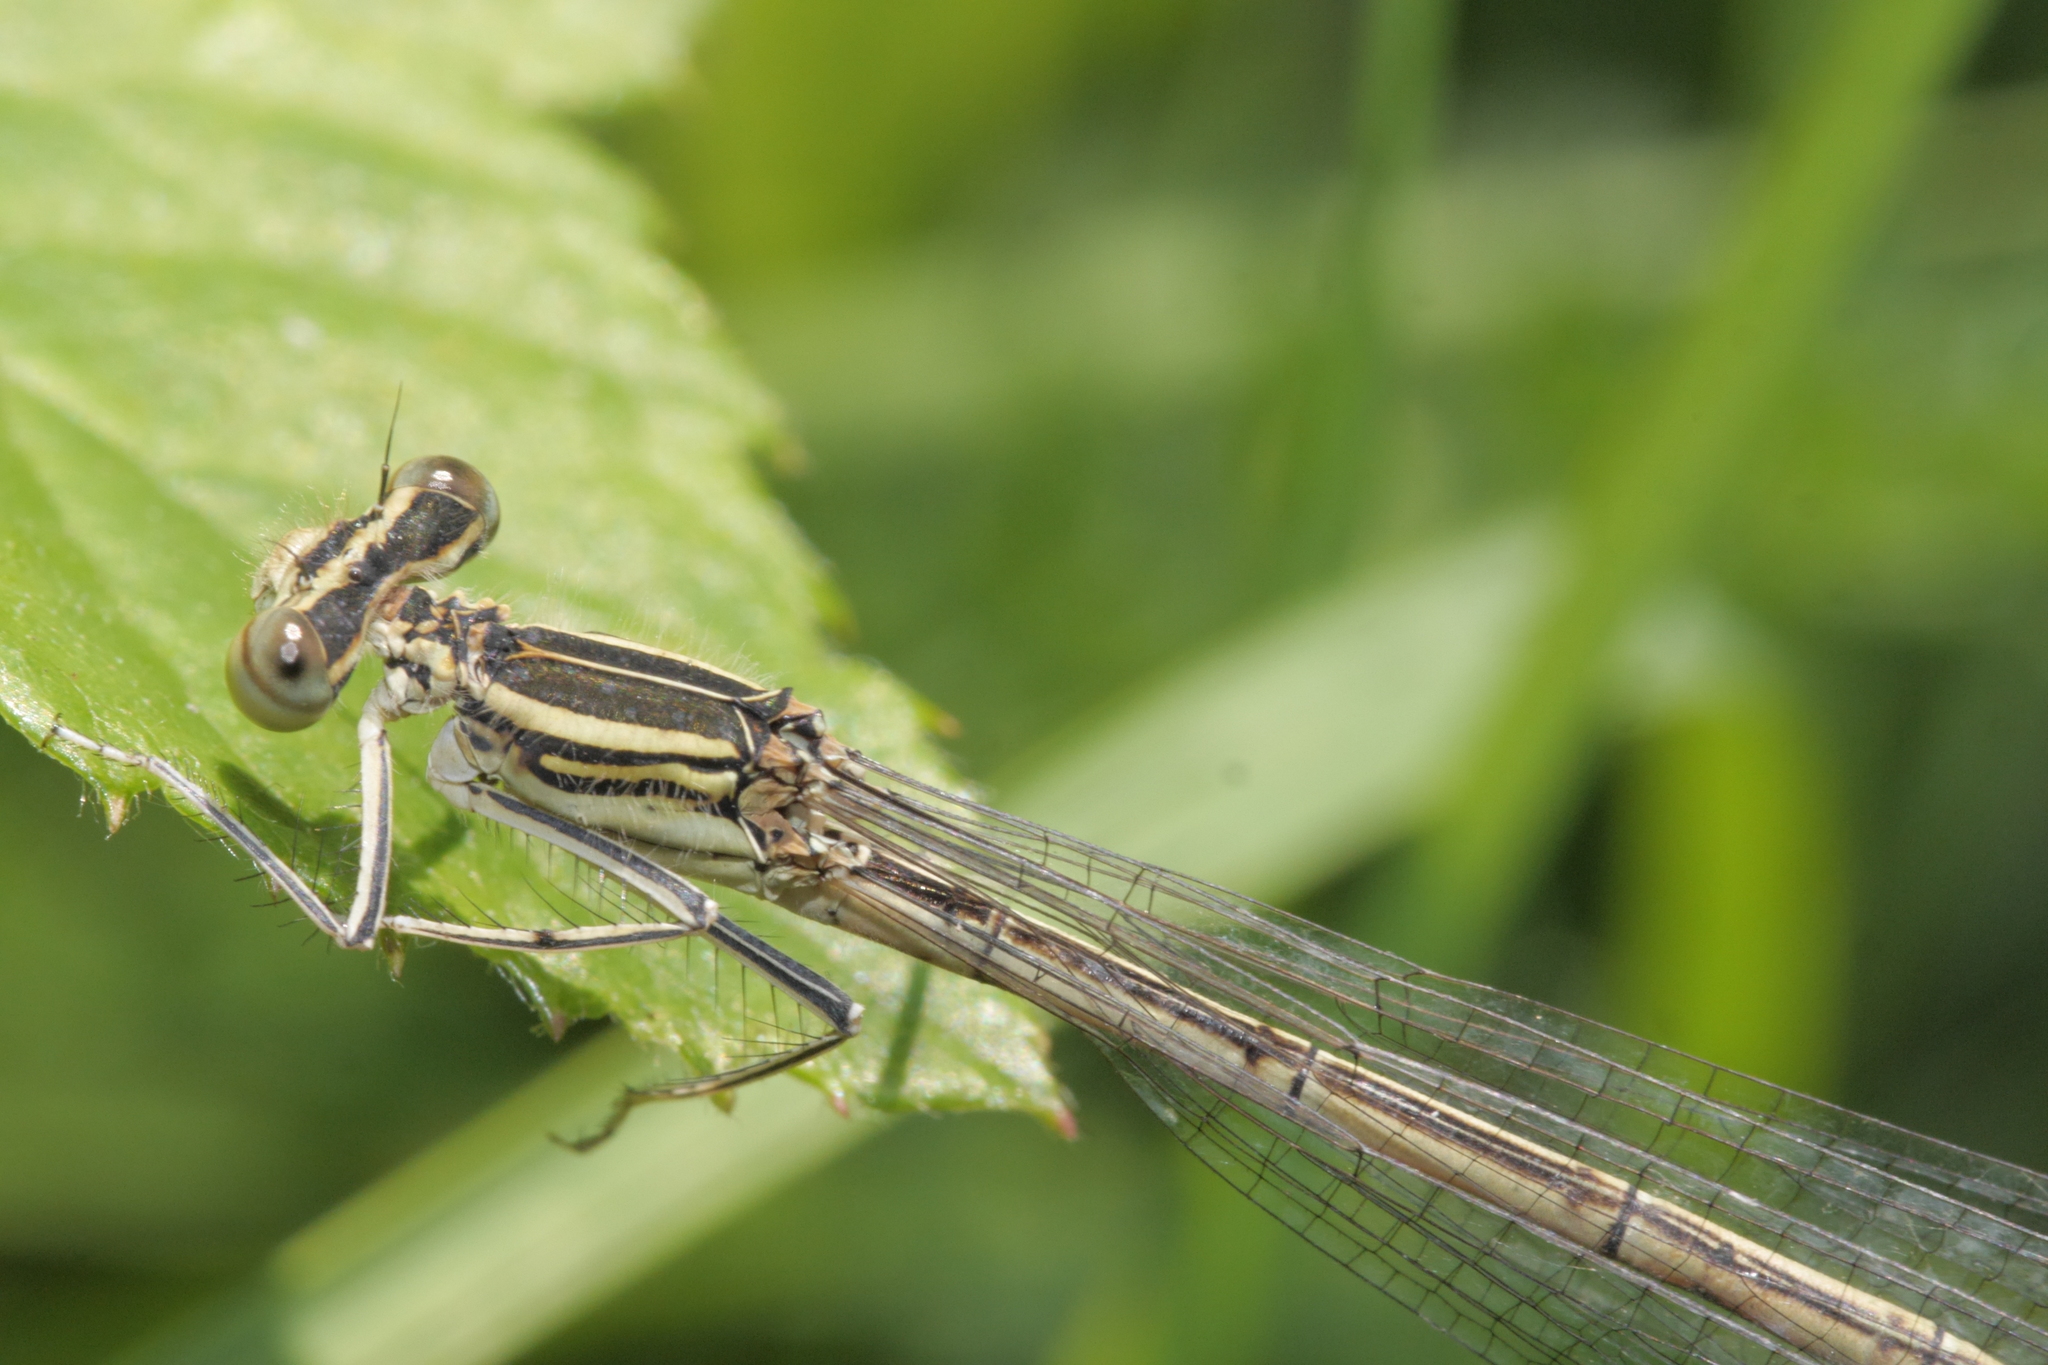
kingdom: Animalia
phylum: Arthropoda
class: Insecta
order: Odonata
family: Platycnemididae
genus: Platycnemis
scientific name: Platycnemis pennipes
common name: White-legged damselfly
